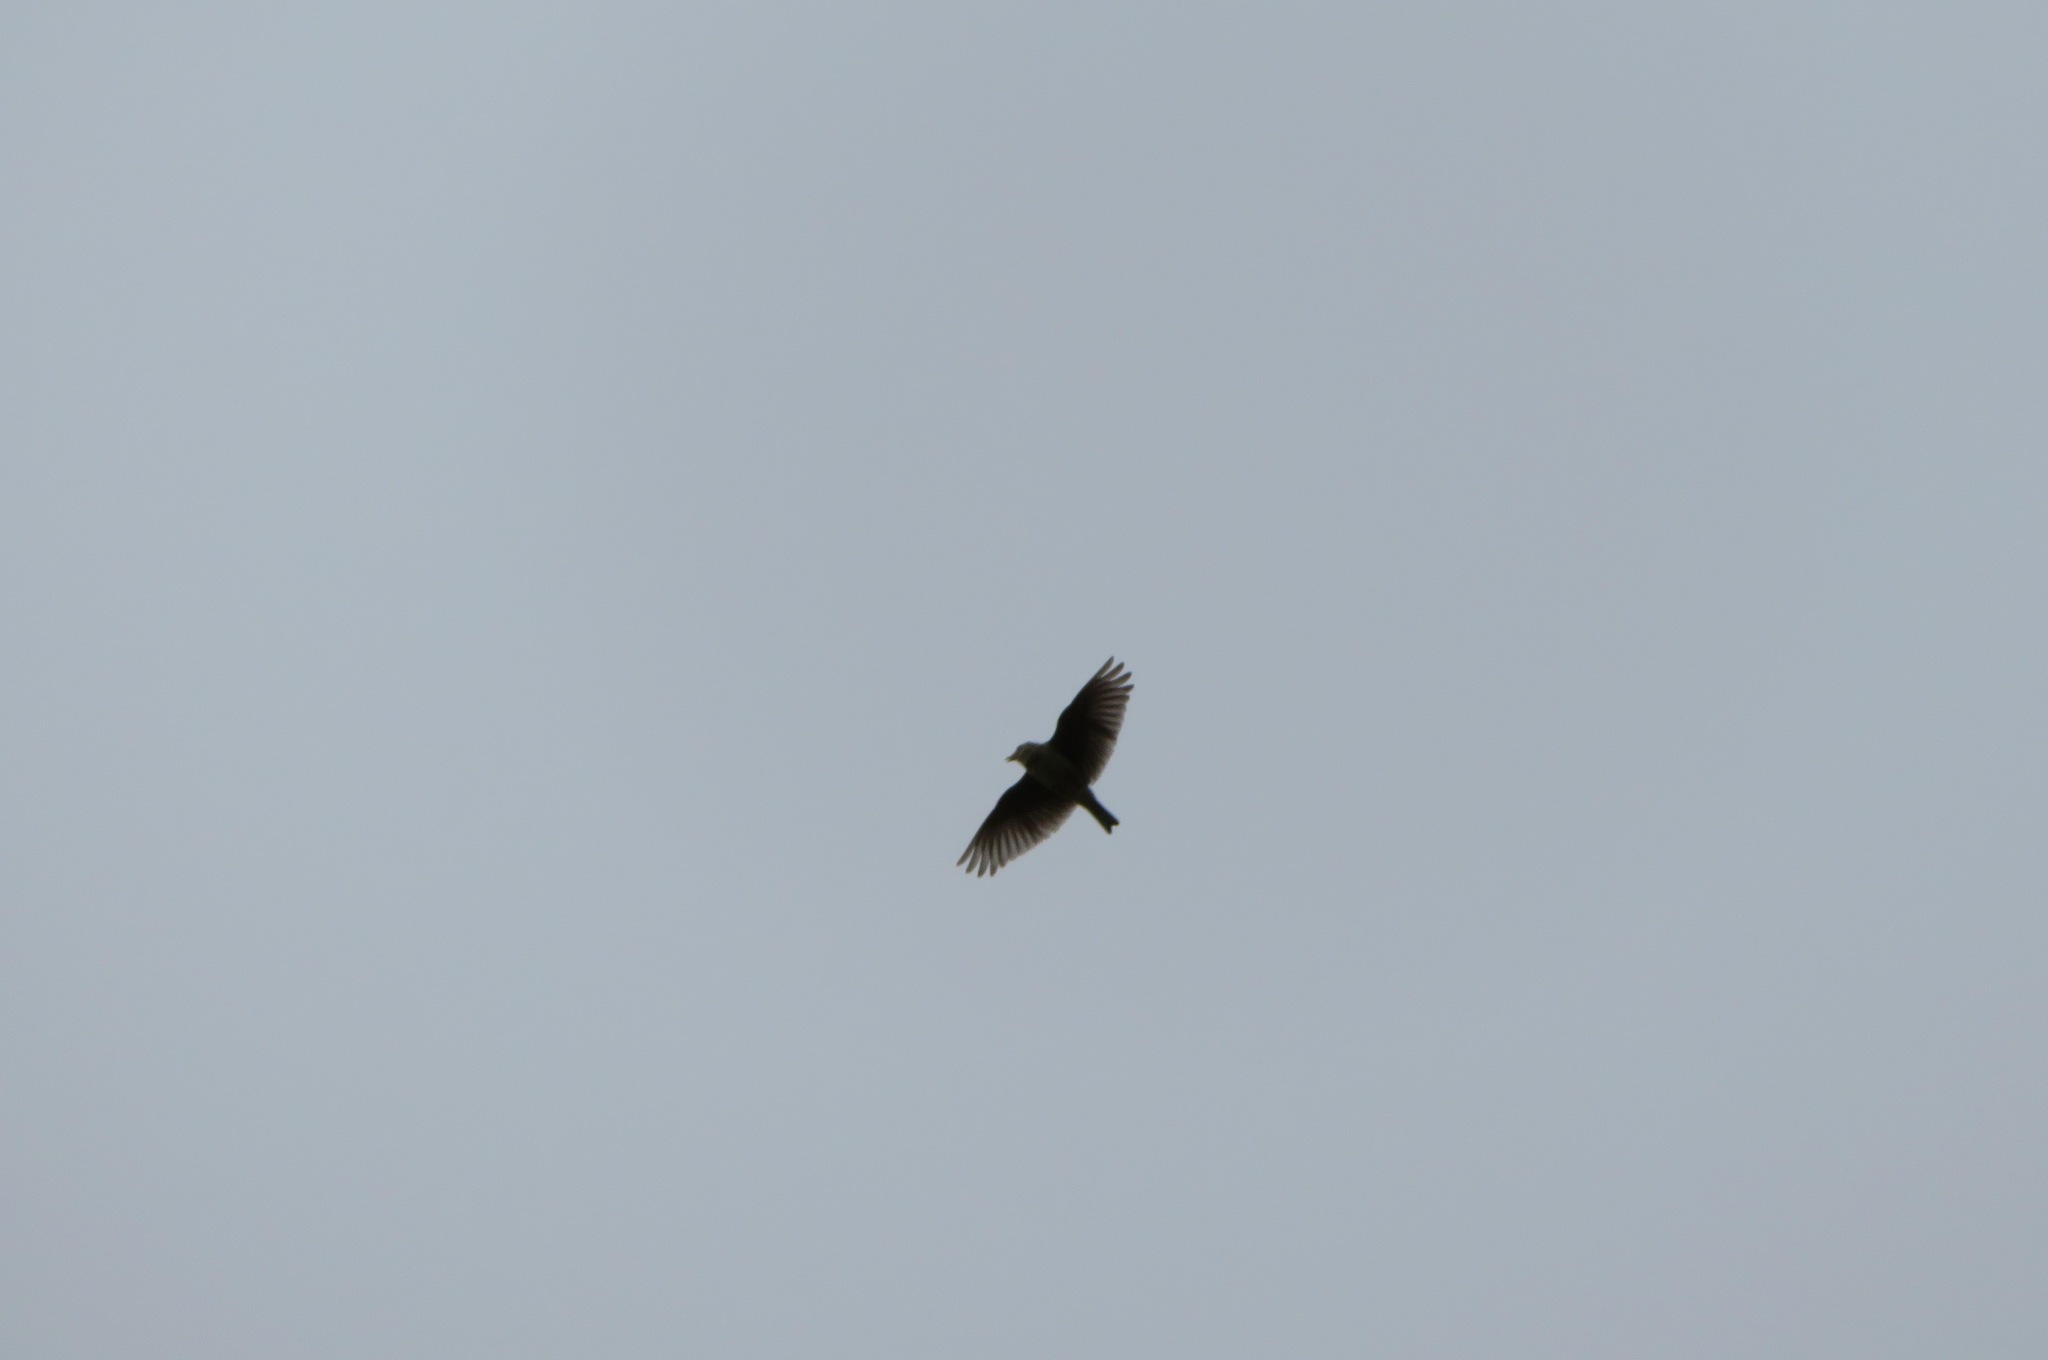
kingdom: Animalia
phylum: Chordata
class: Aves
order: Passeriformes
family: Alaudidae
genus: Alauda
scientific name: Alauda arvensis
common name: Eurasian skylark
